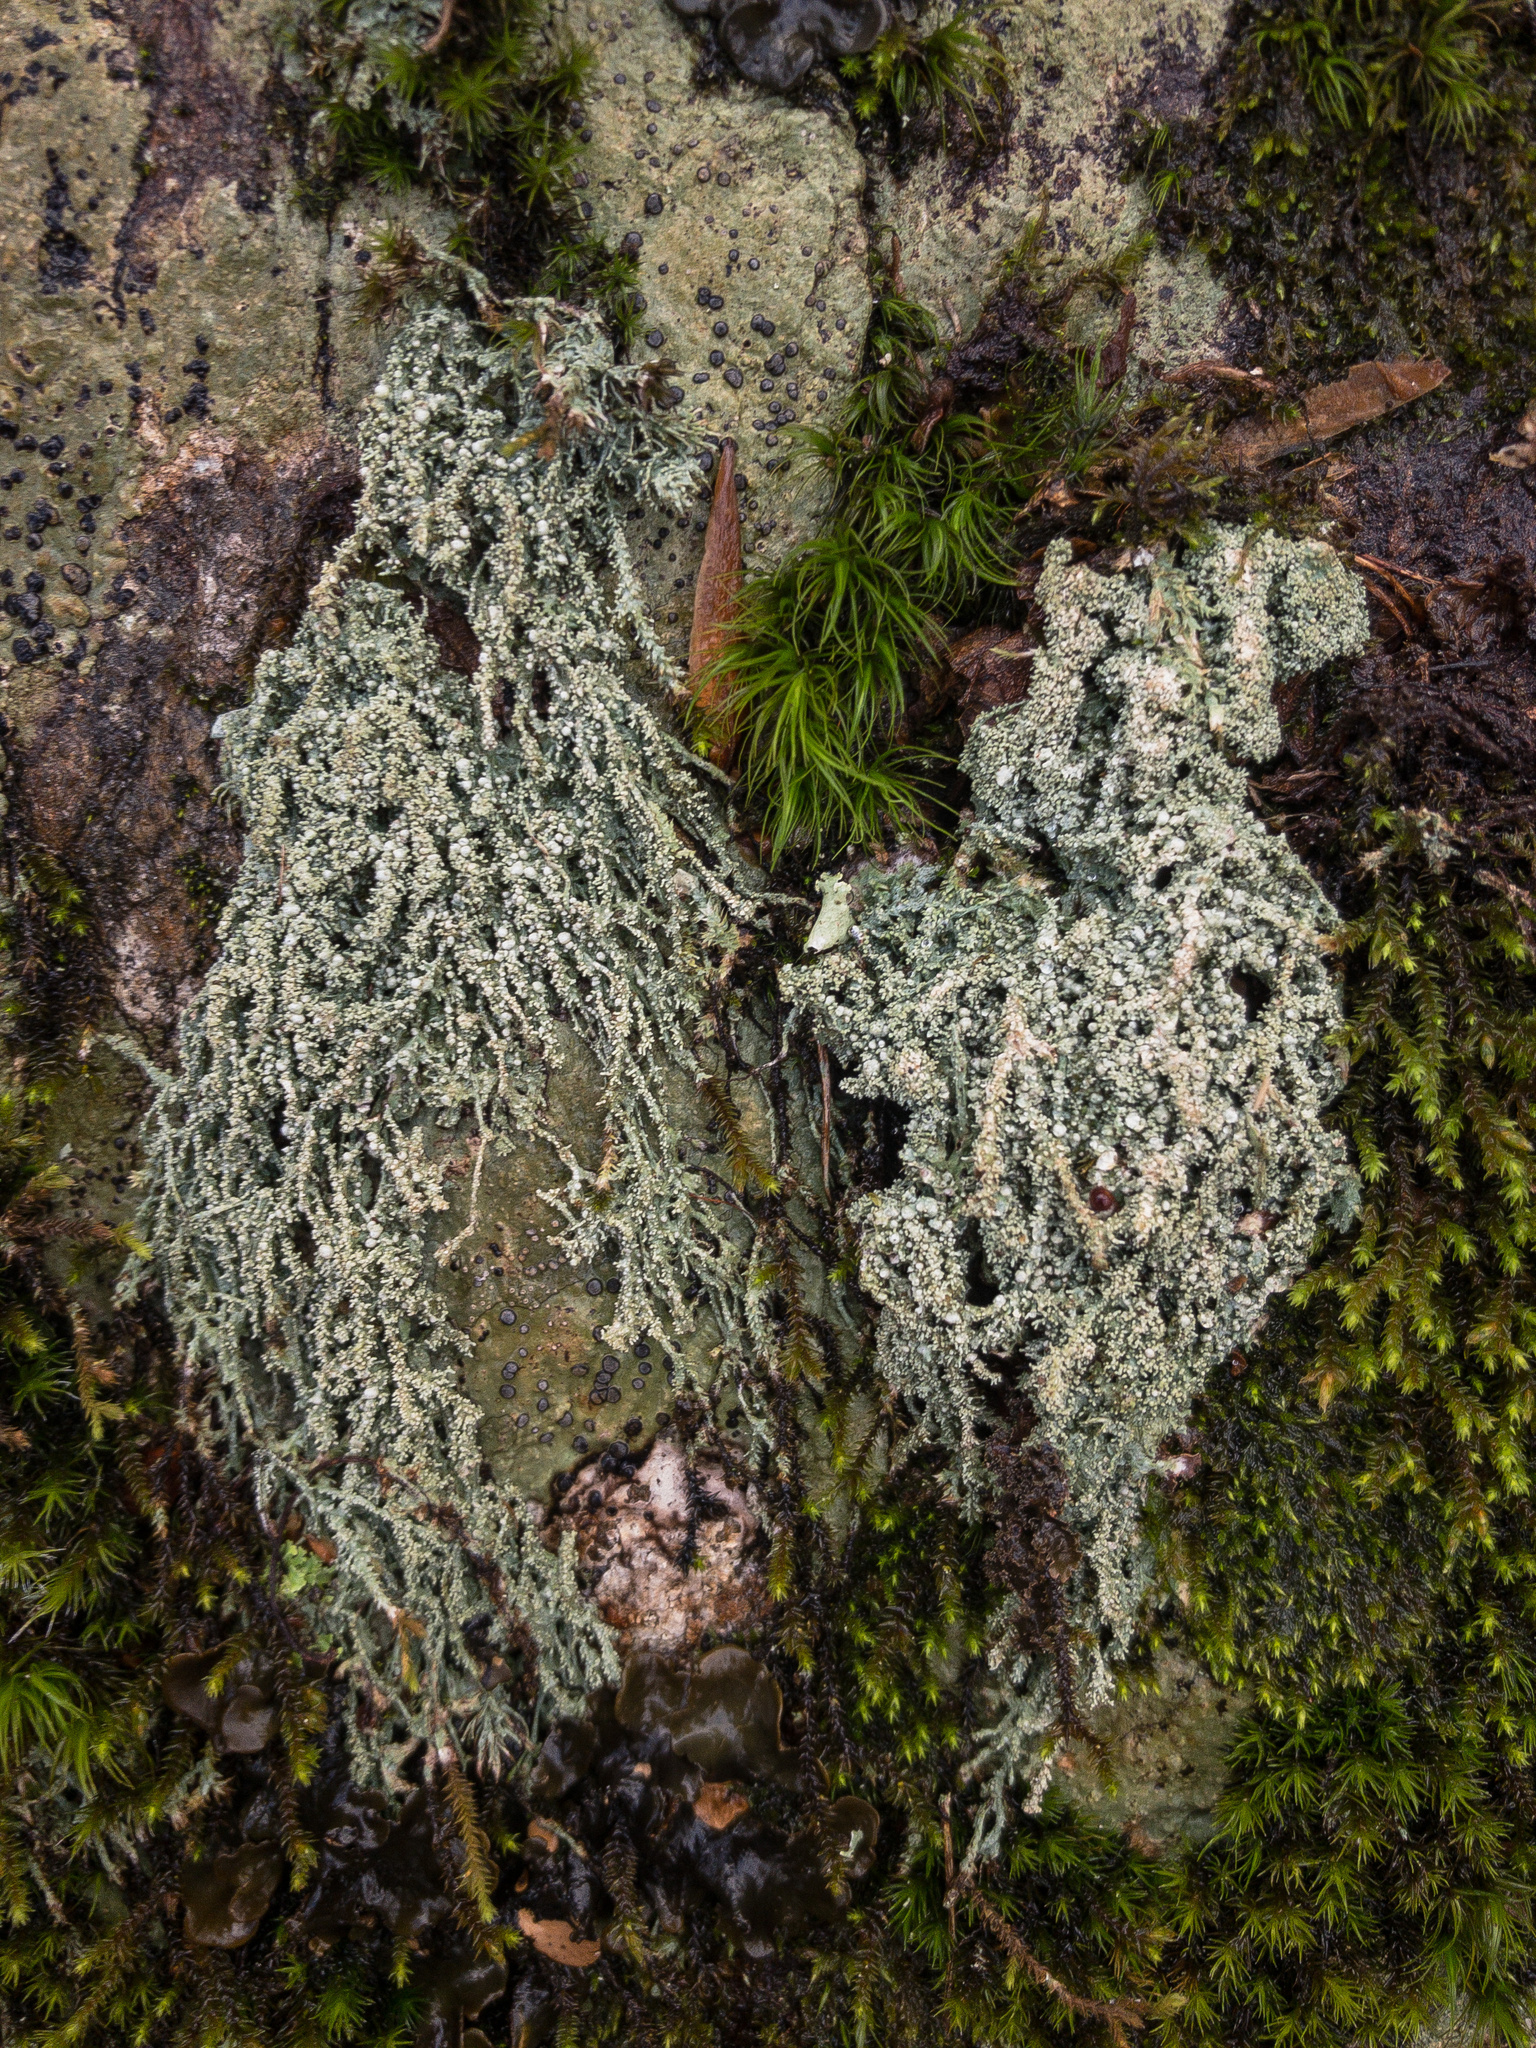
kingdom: Fungi
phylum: Ascomycota
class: Lecanoromycetes
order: Pertusariales
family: Pertusariaceae
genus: Pertusaria
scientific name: Pertusaria globularis
